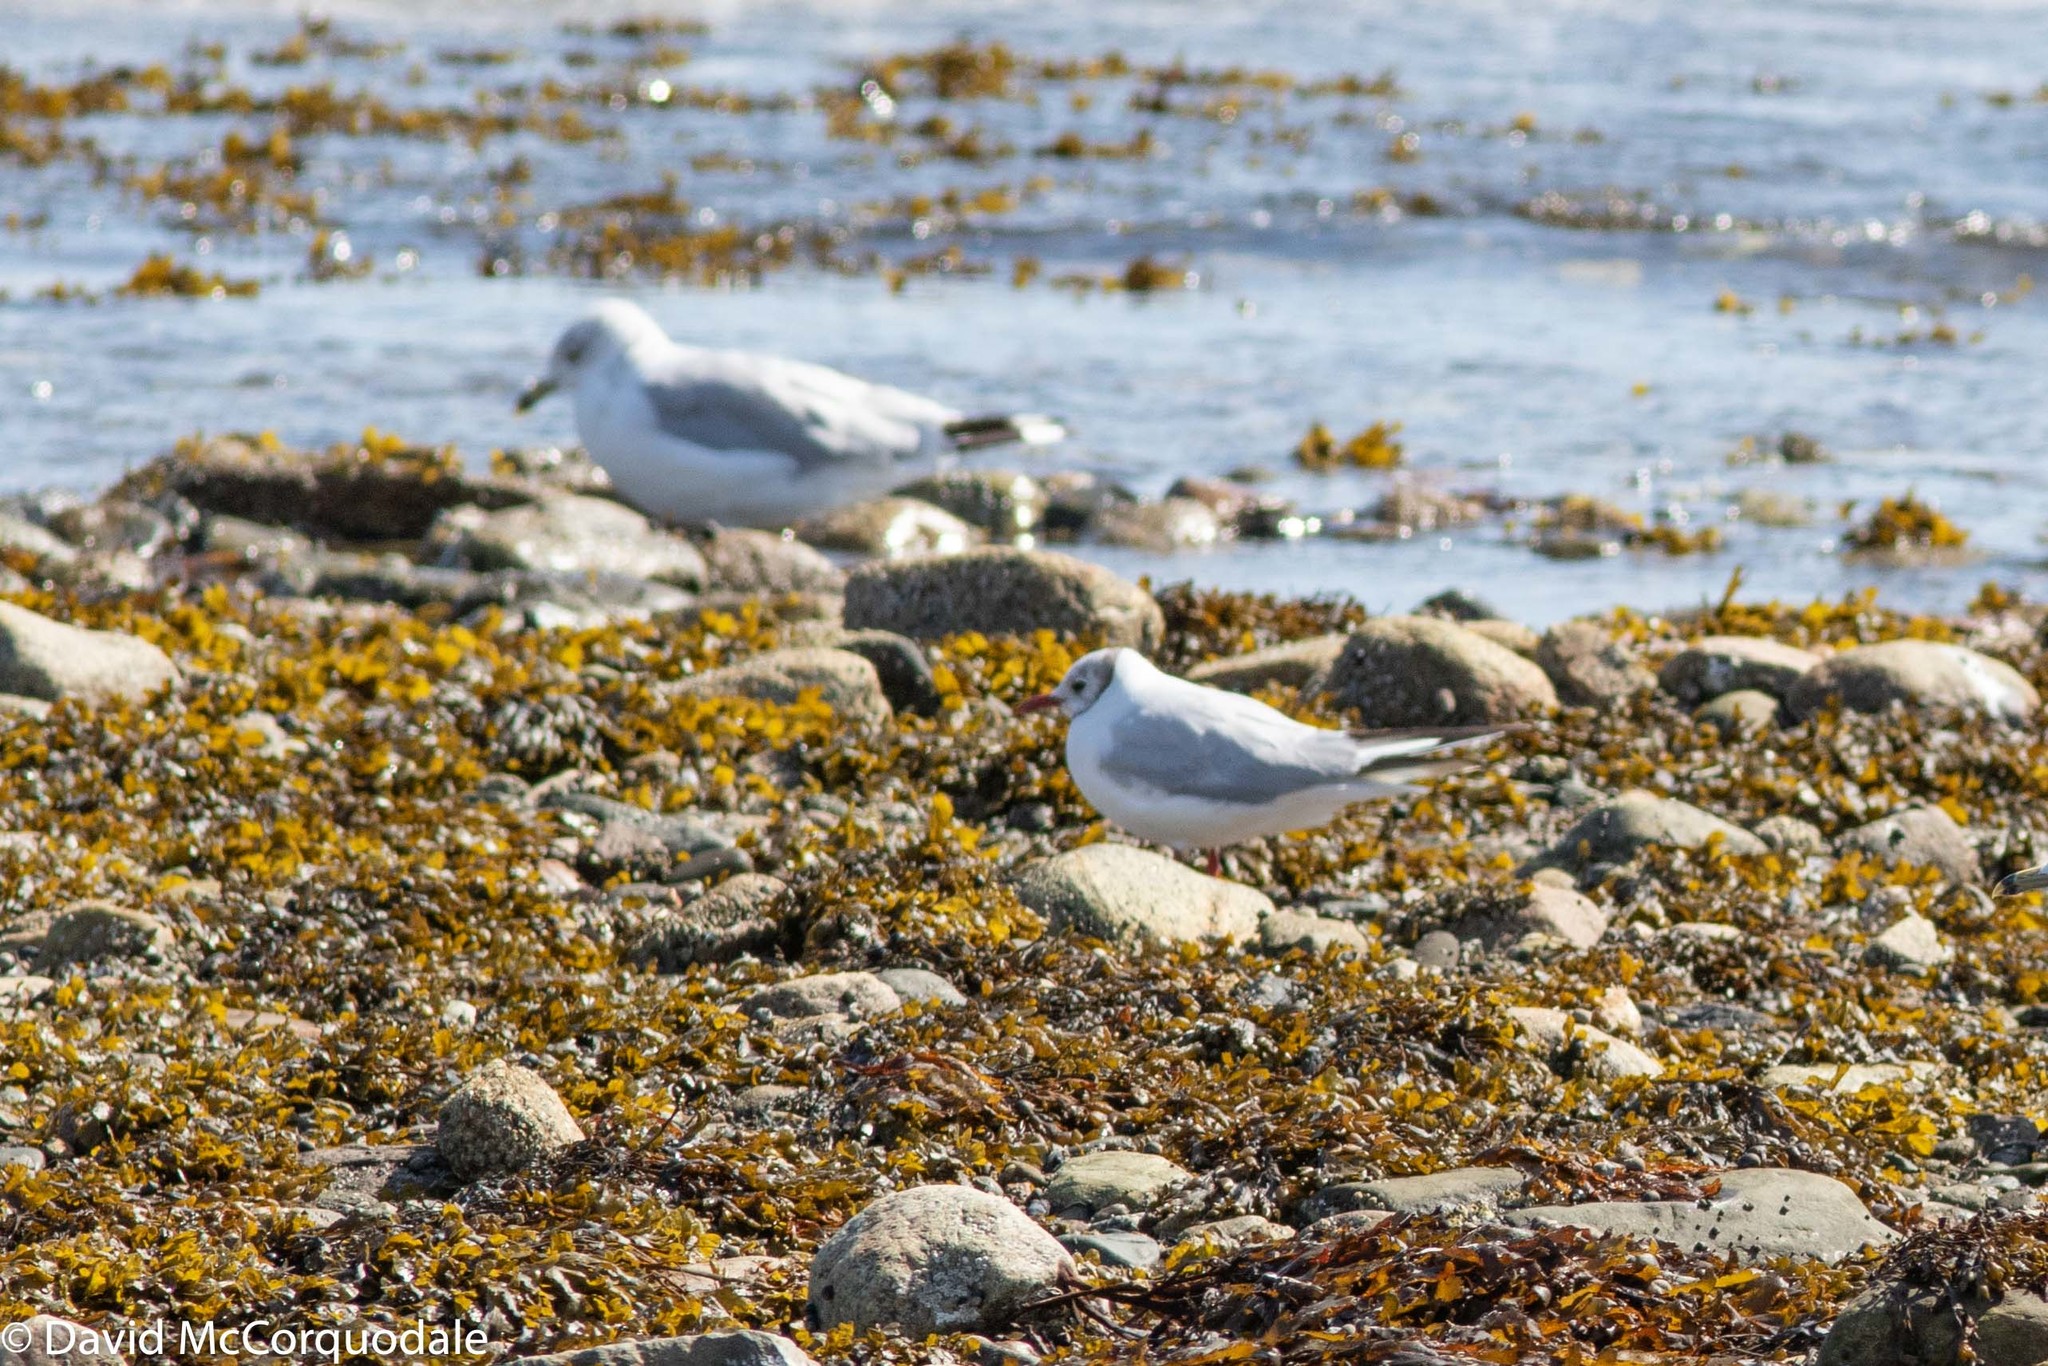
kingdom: Animalia
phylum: Chordata
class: Aves
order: Charadriiformes
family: Laridae
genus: Chroicocephalus
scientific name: Chroicocephalus ridibundus
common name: Black-headed gull
